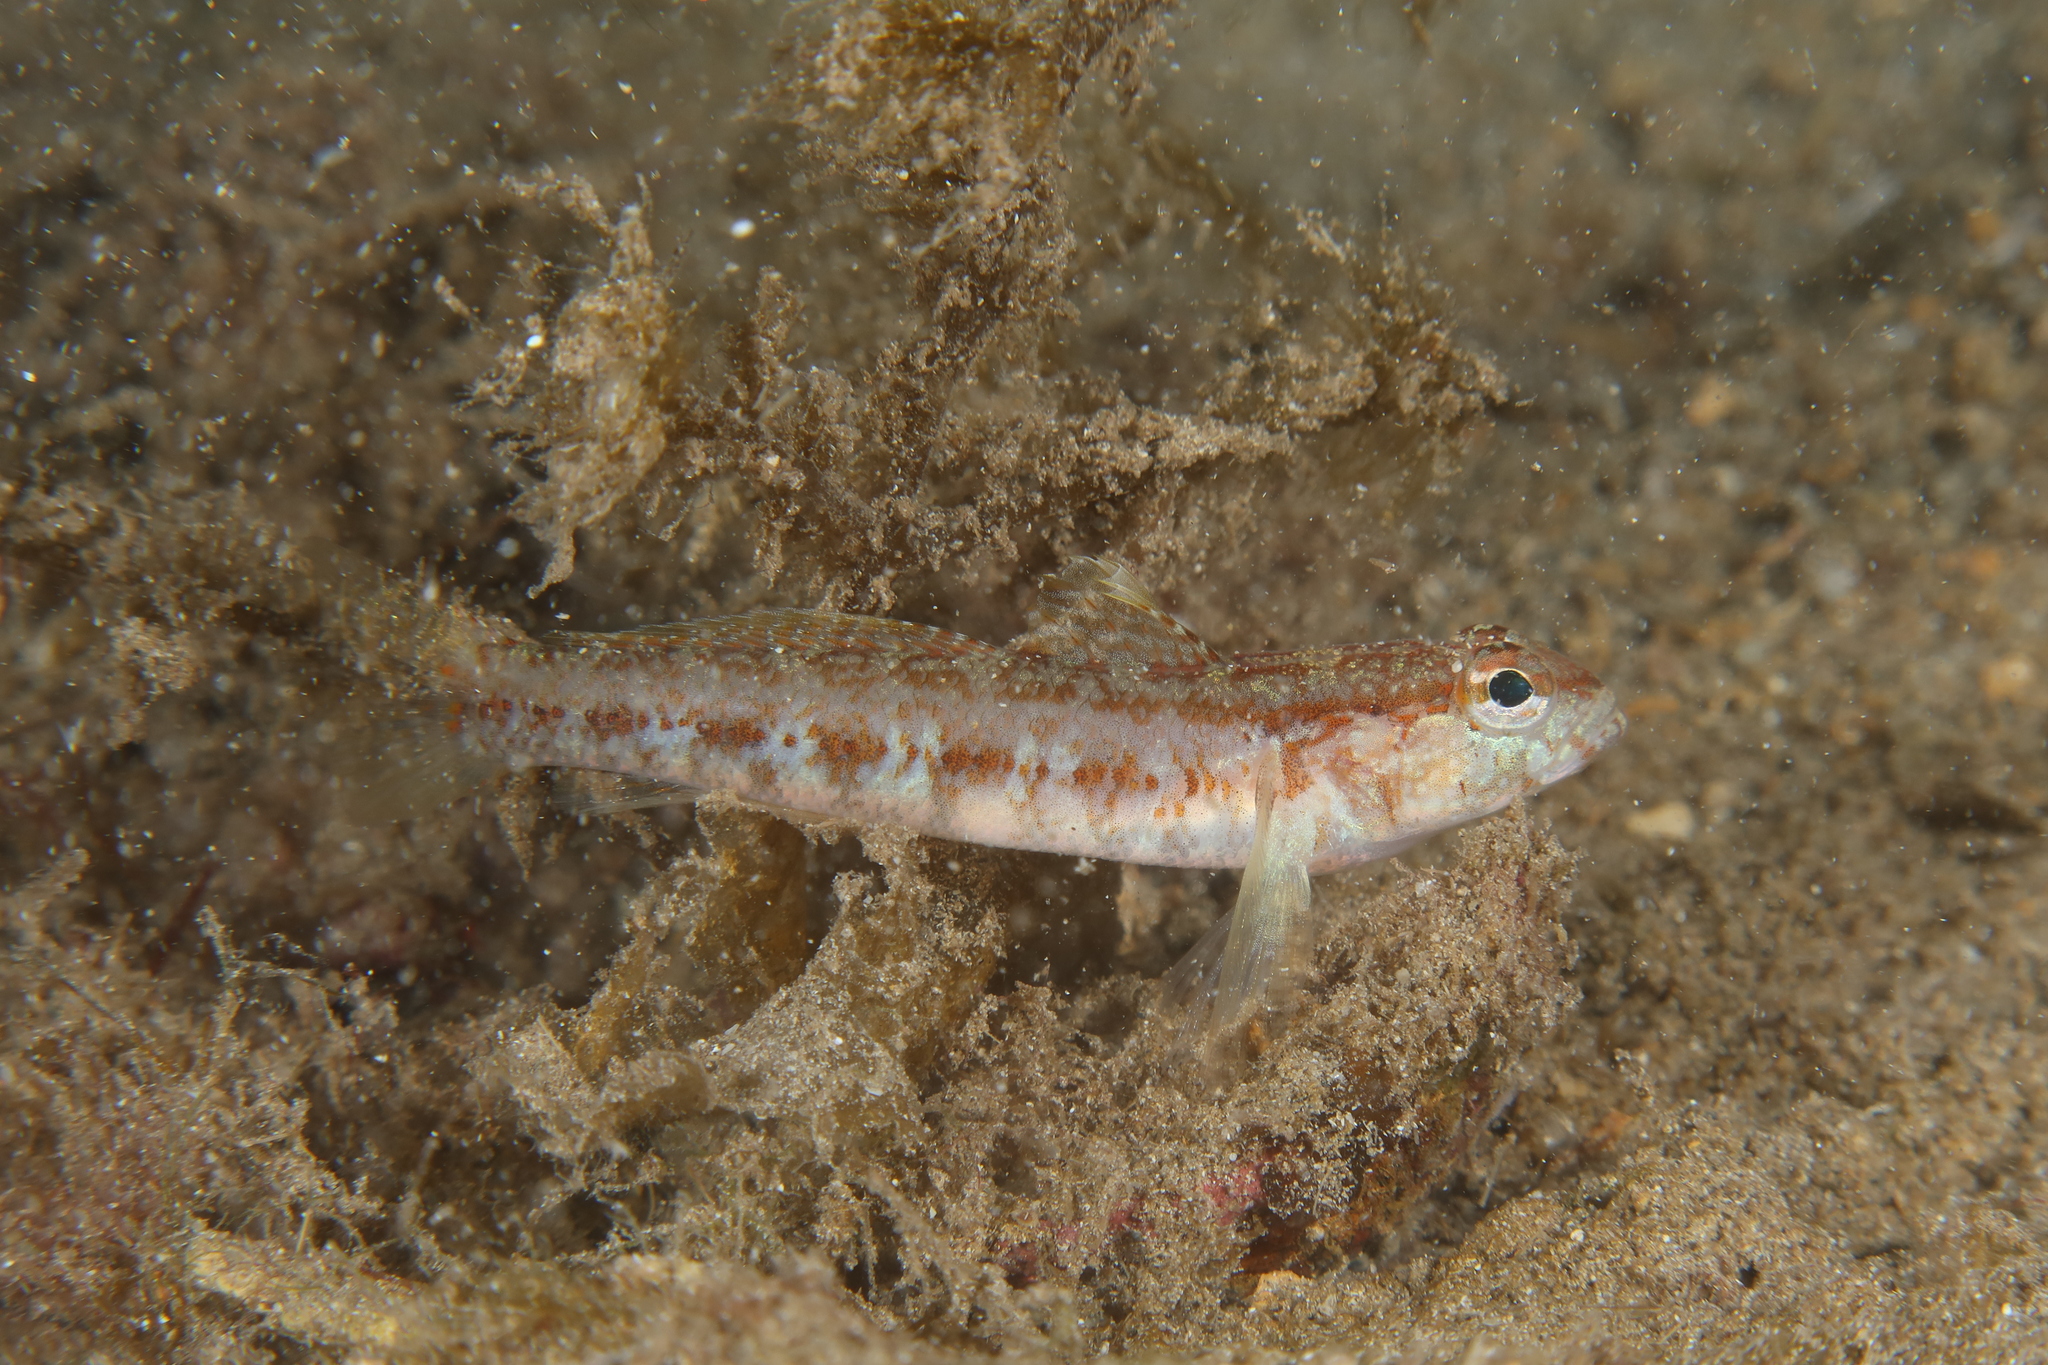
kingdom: Animalia
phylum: Chordata
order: Perciformes
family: Gobiidae
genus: Gobius
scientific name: Gobius xoriguer
